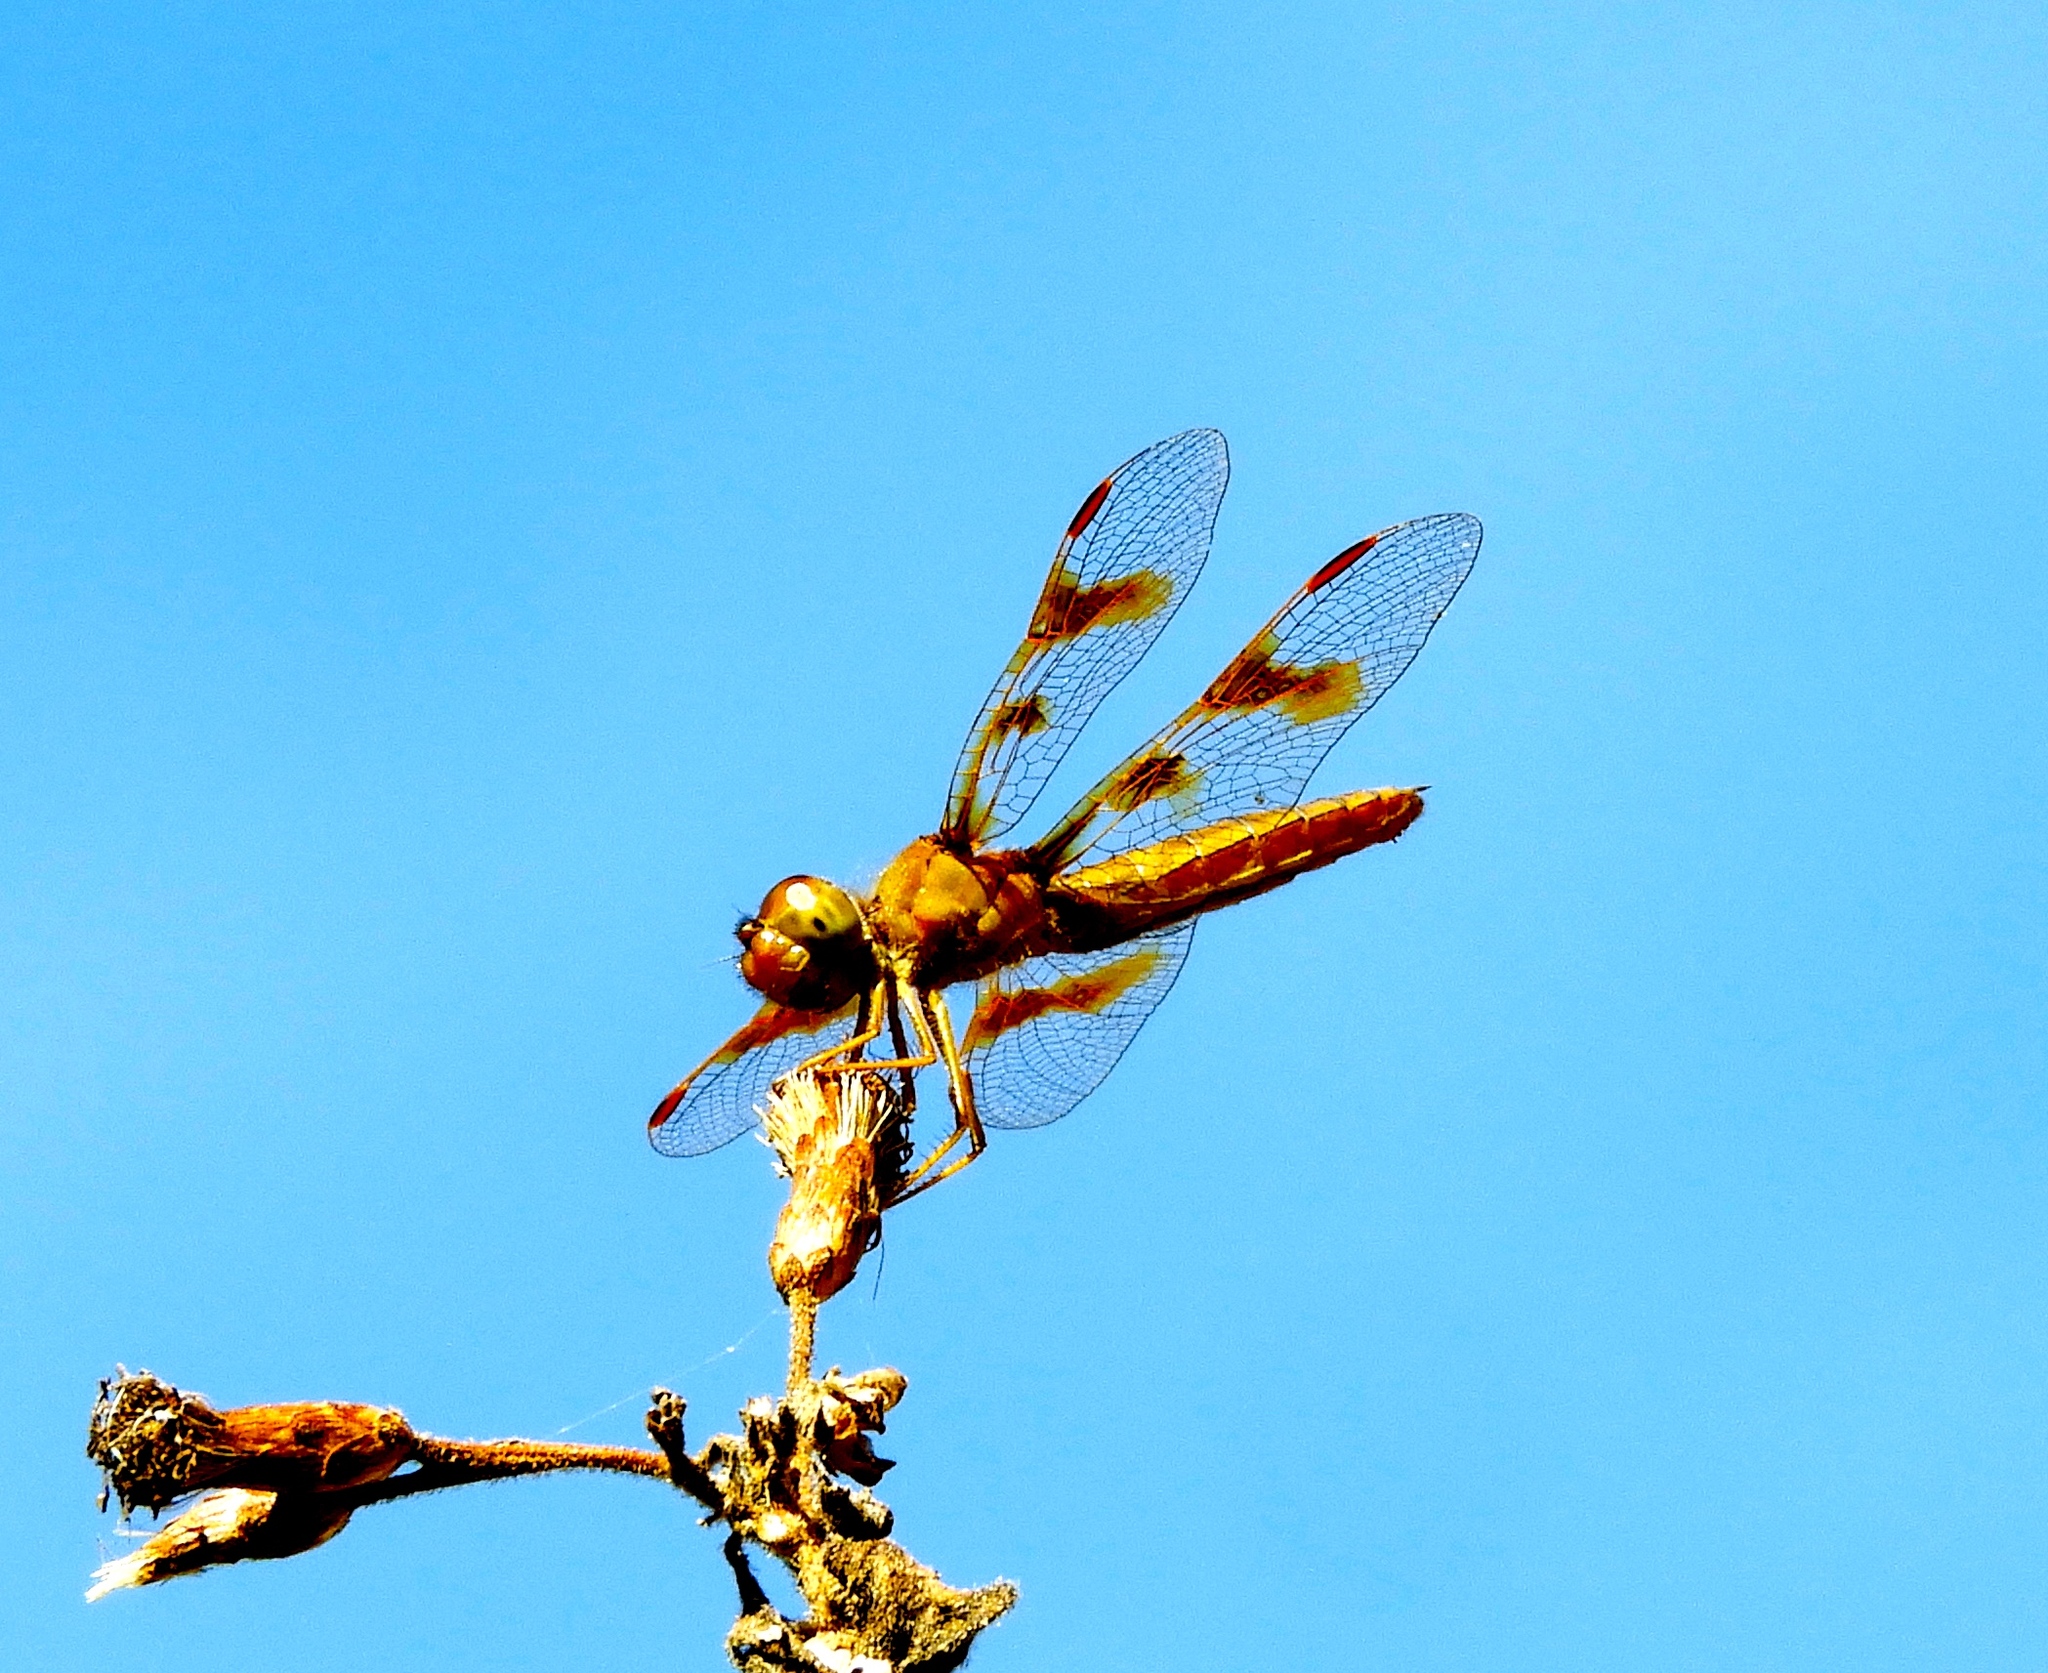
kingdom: Animalia
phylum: Arthropoda
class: Insecta
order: Odonata
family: Libellulidae
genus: Perithemis
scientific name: Perithemis intensa
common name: Mexican amberwing
